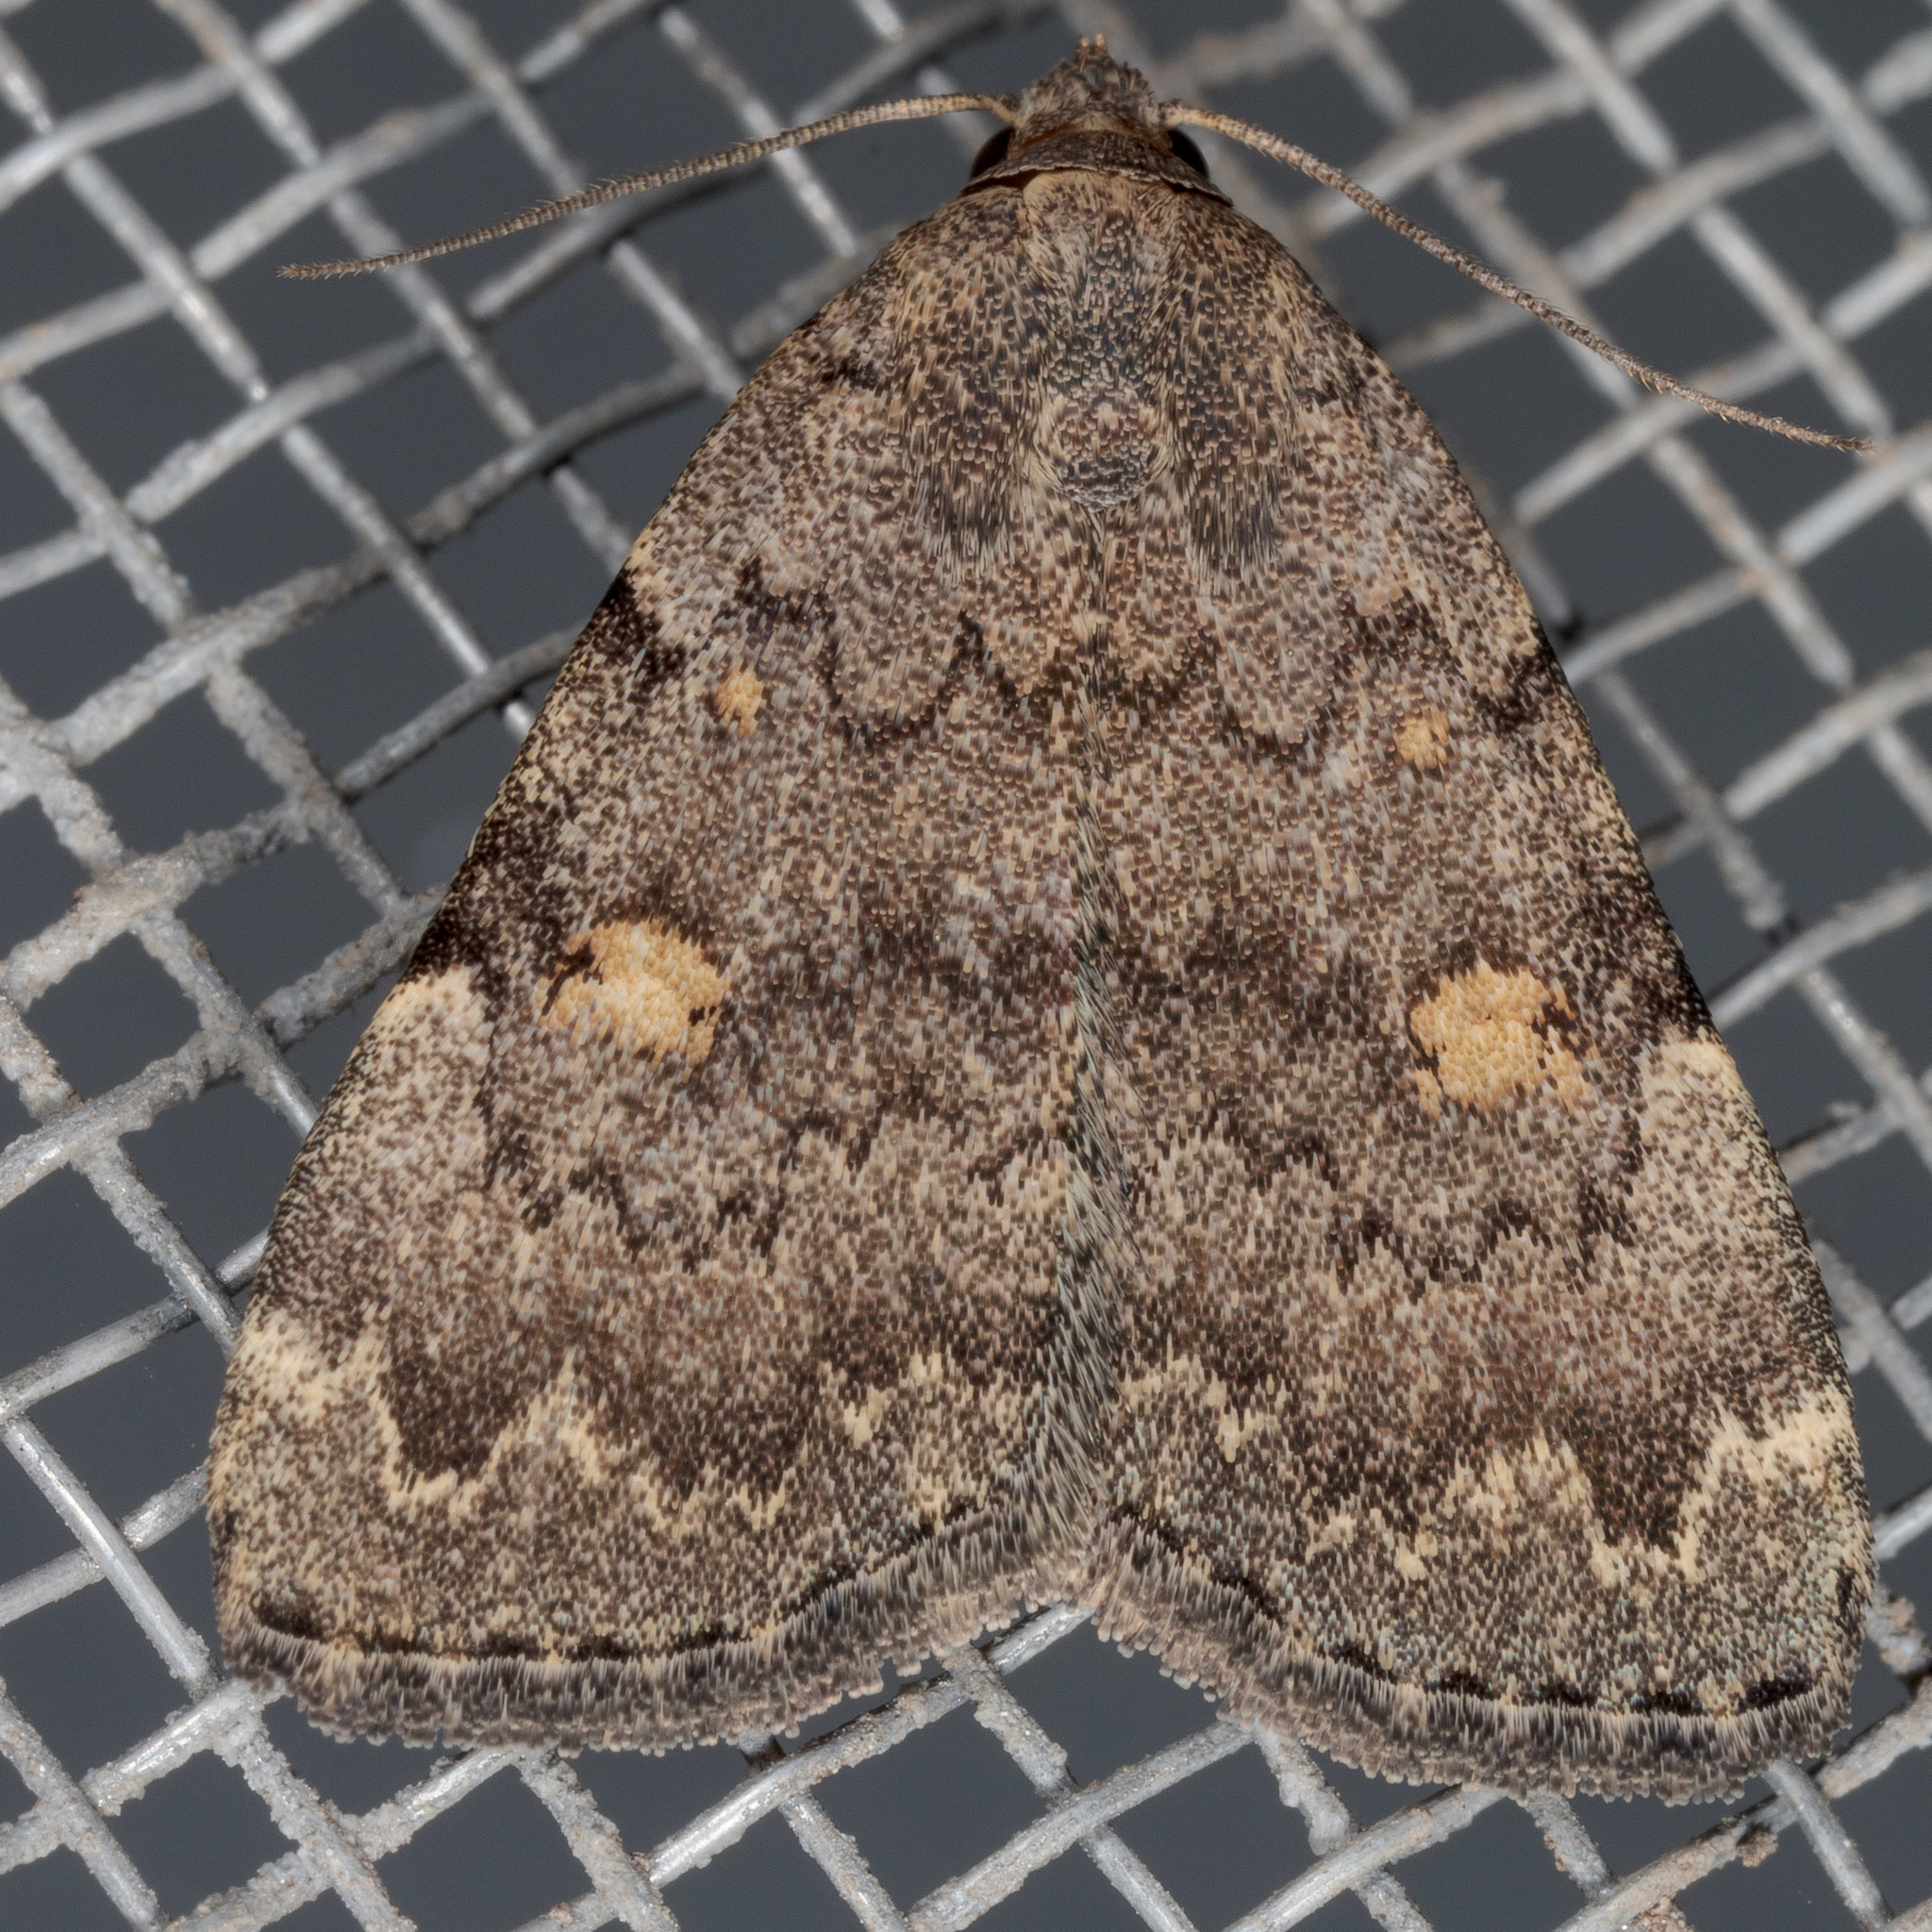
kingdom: Animalia
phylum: Arthropoda
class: Insecta
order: Lepidoptera
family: Erebidae
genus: Idia
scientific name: Idia aemula
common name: Common idia moth
